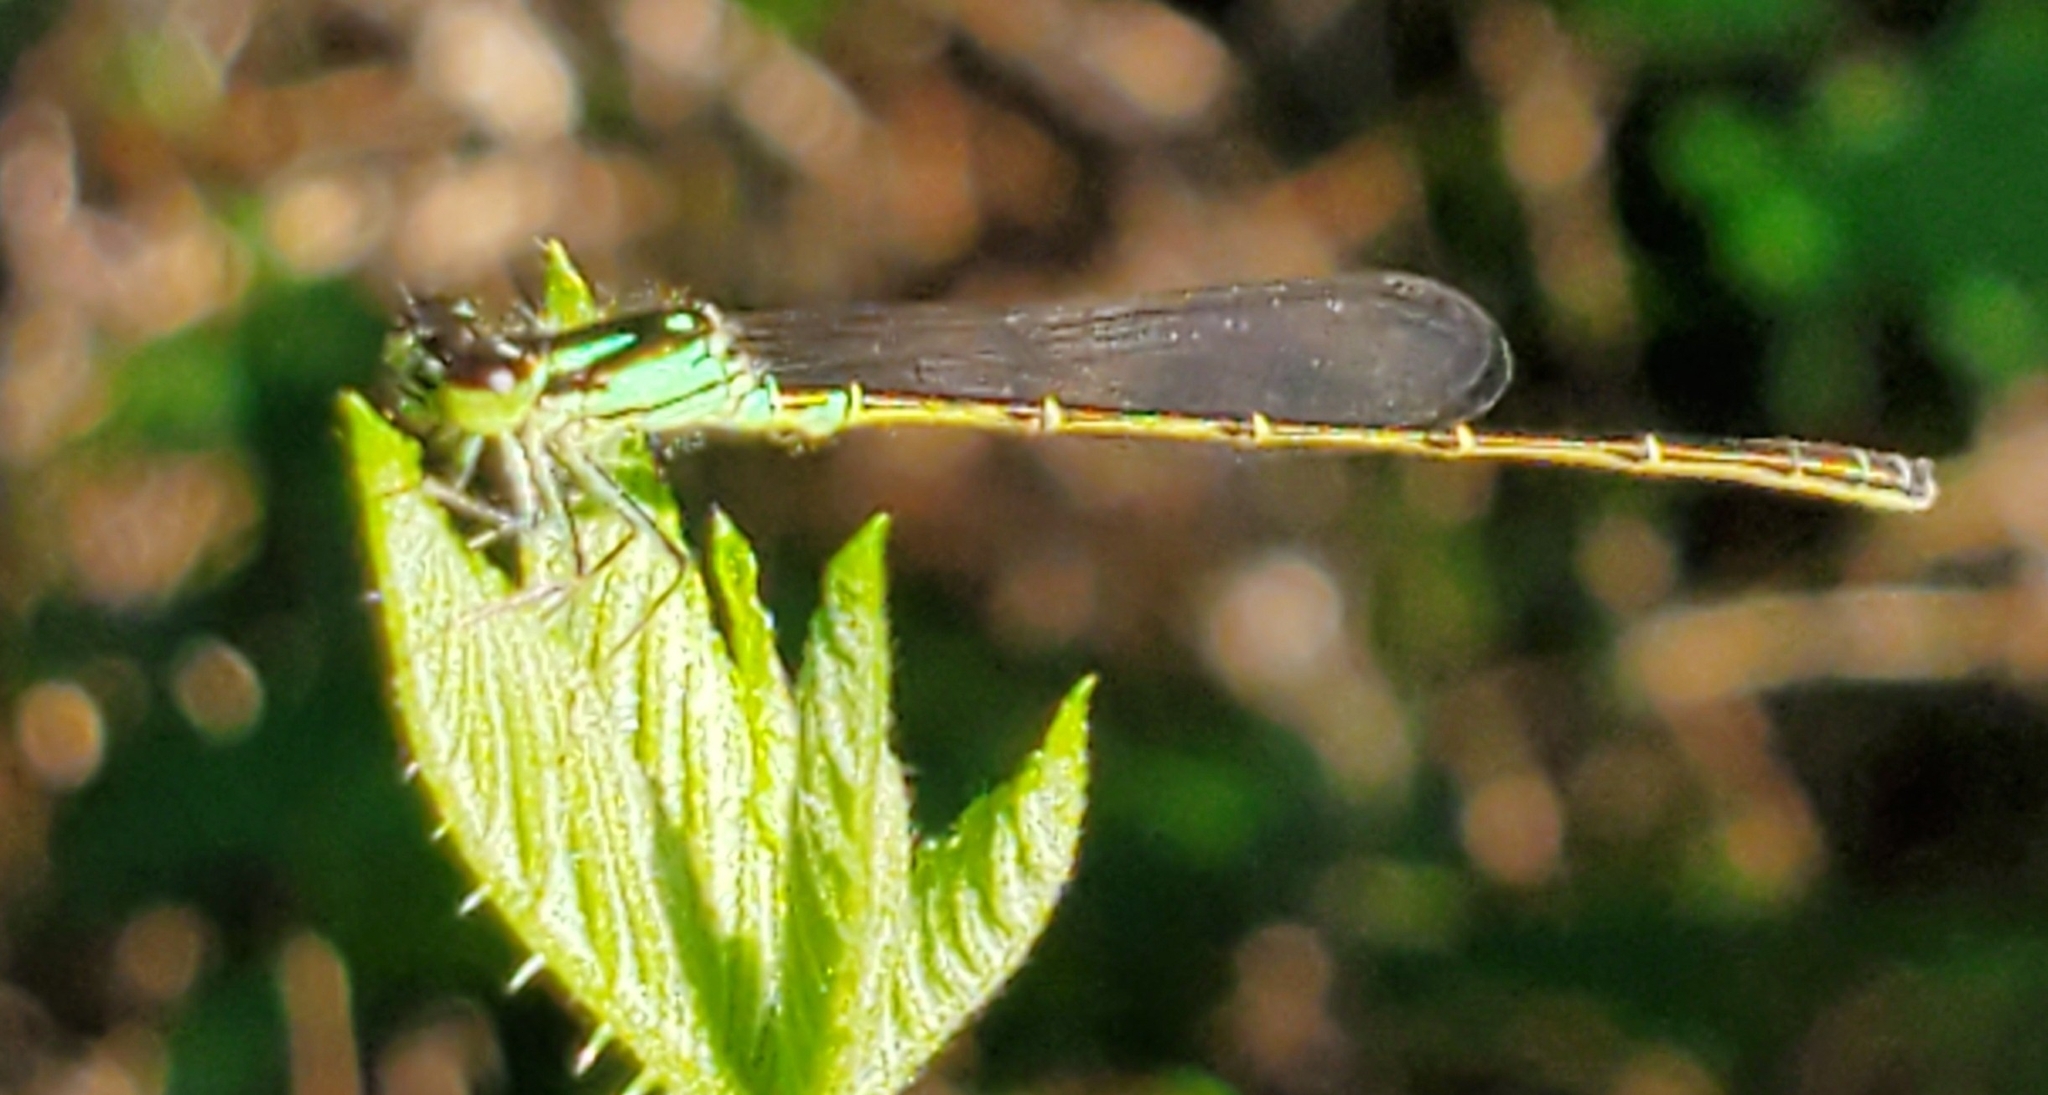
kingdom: Animalia
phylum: Arthropoda
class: Insecta
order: Odonata
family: Coenagrionidae
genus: Ischnura
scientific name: Ischnura posita
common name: Fragile forktail
